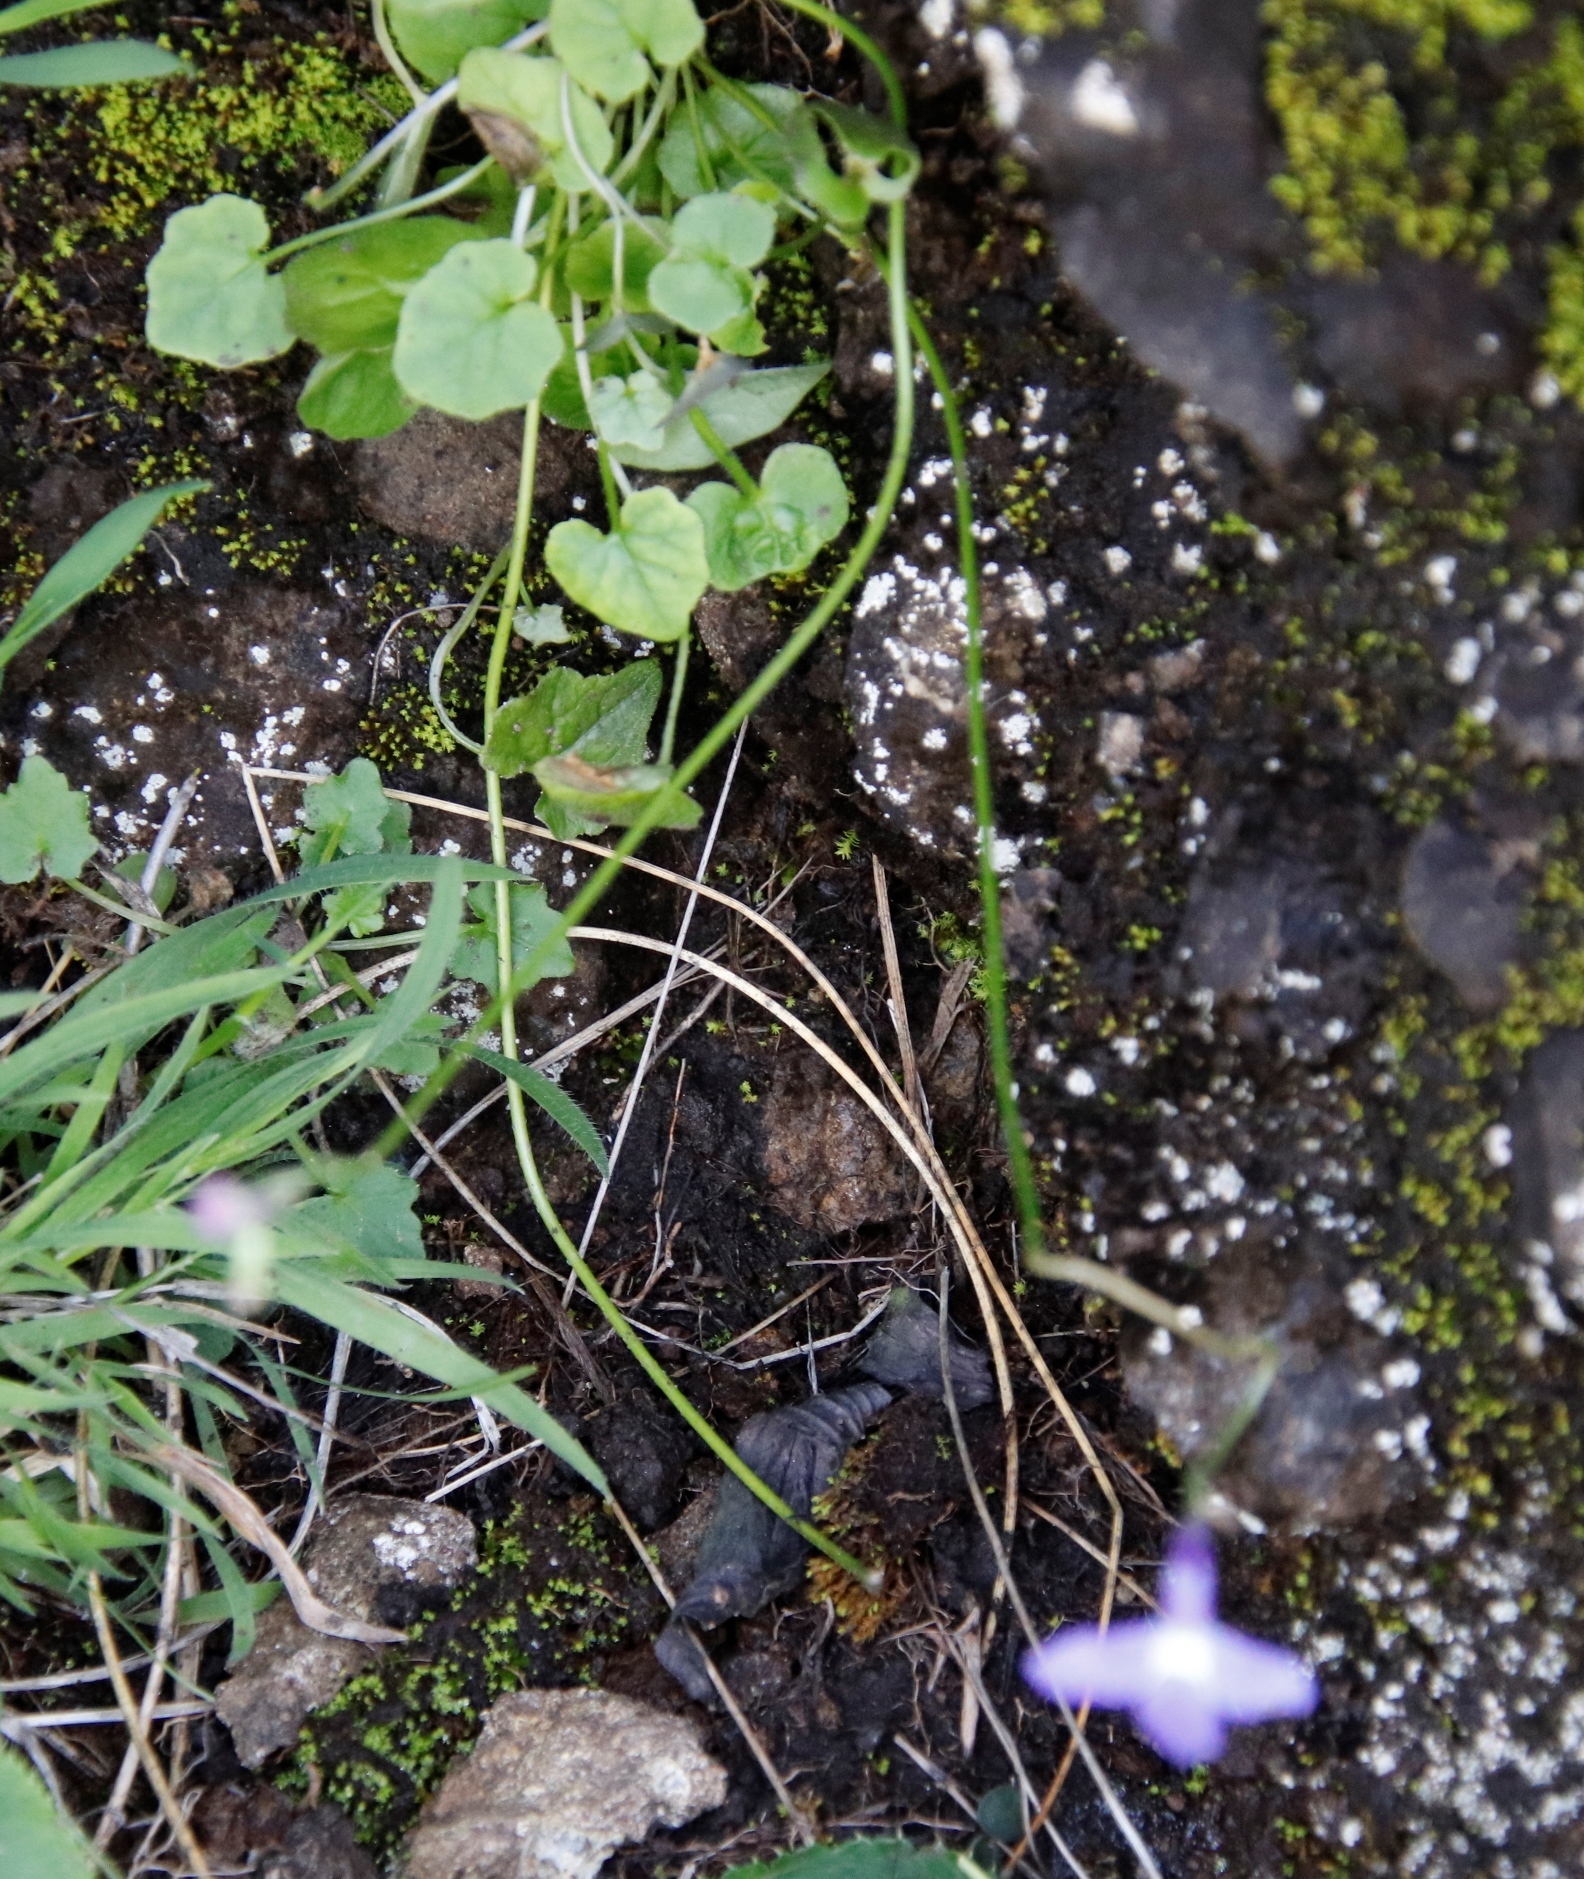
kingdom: Plantae
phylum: Tracheophyta
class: Magnoliopsida
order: Asterales
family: Campanulaceae
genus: Lobelia
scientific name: Lobelia preslii
